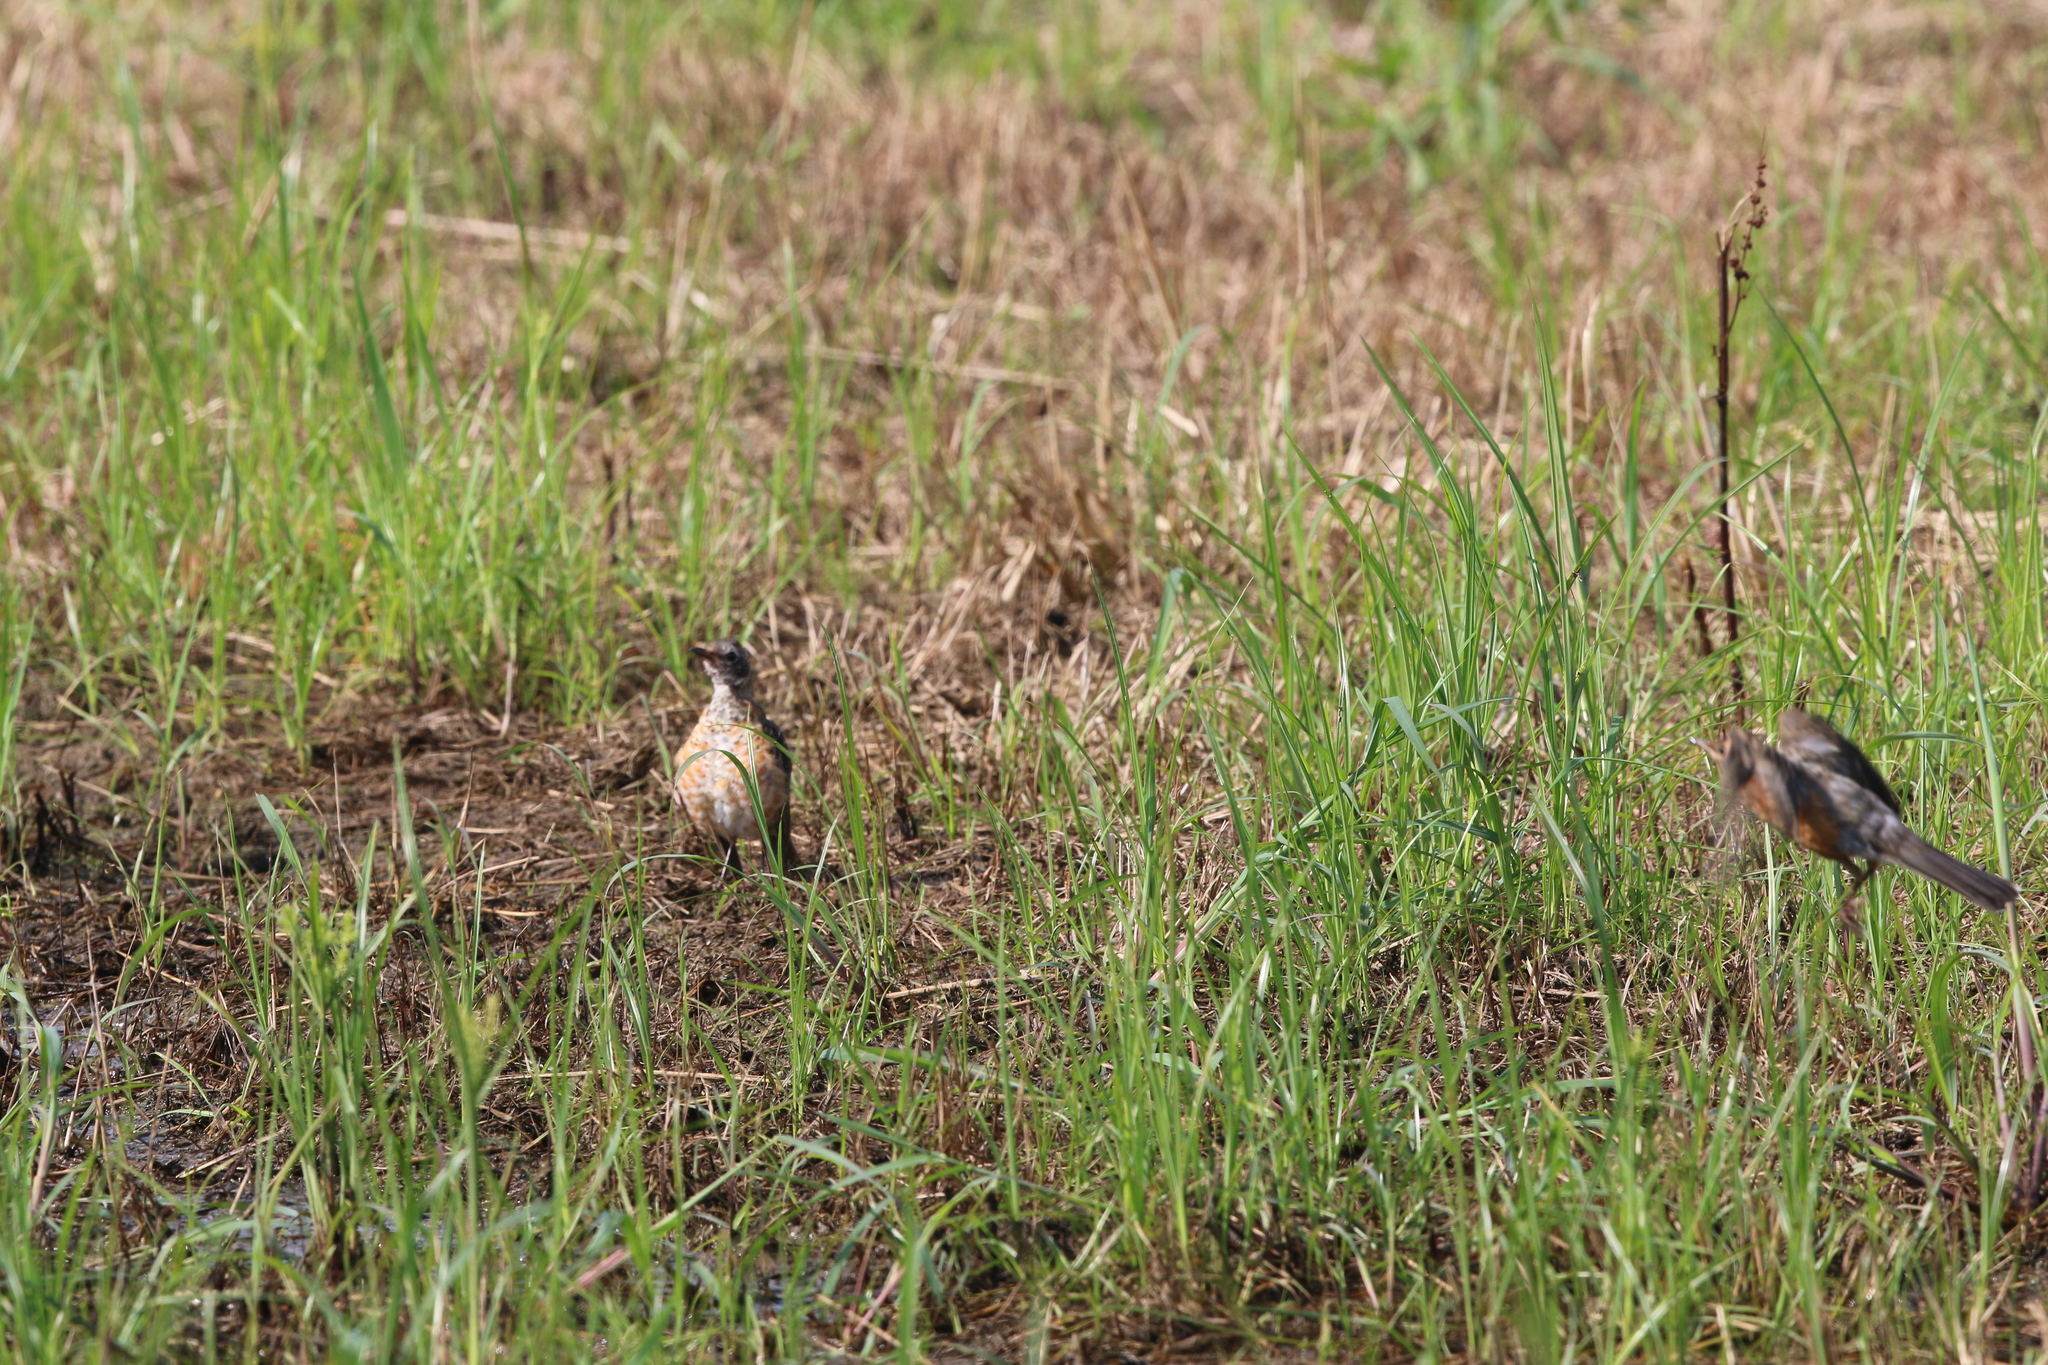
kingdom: Animalia
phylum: Chordata
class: Aves
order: Passeriformes
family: Turdidae
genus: Turdus
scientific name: Turdus migratorius
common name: American robin
